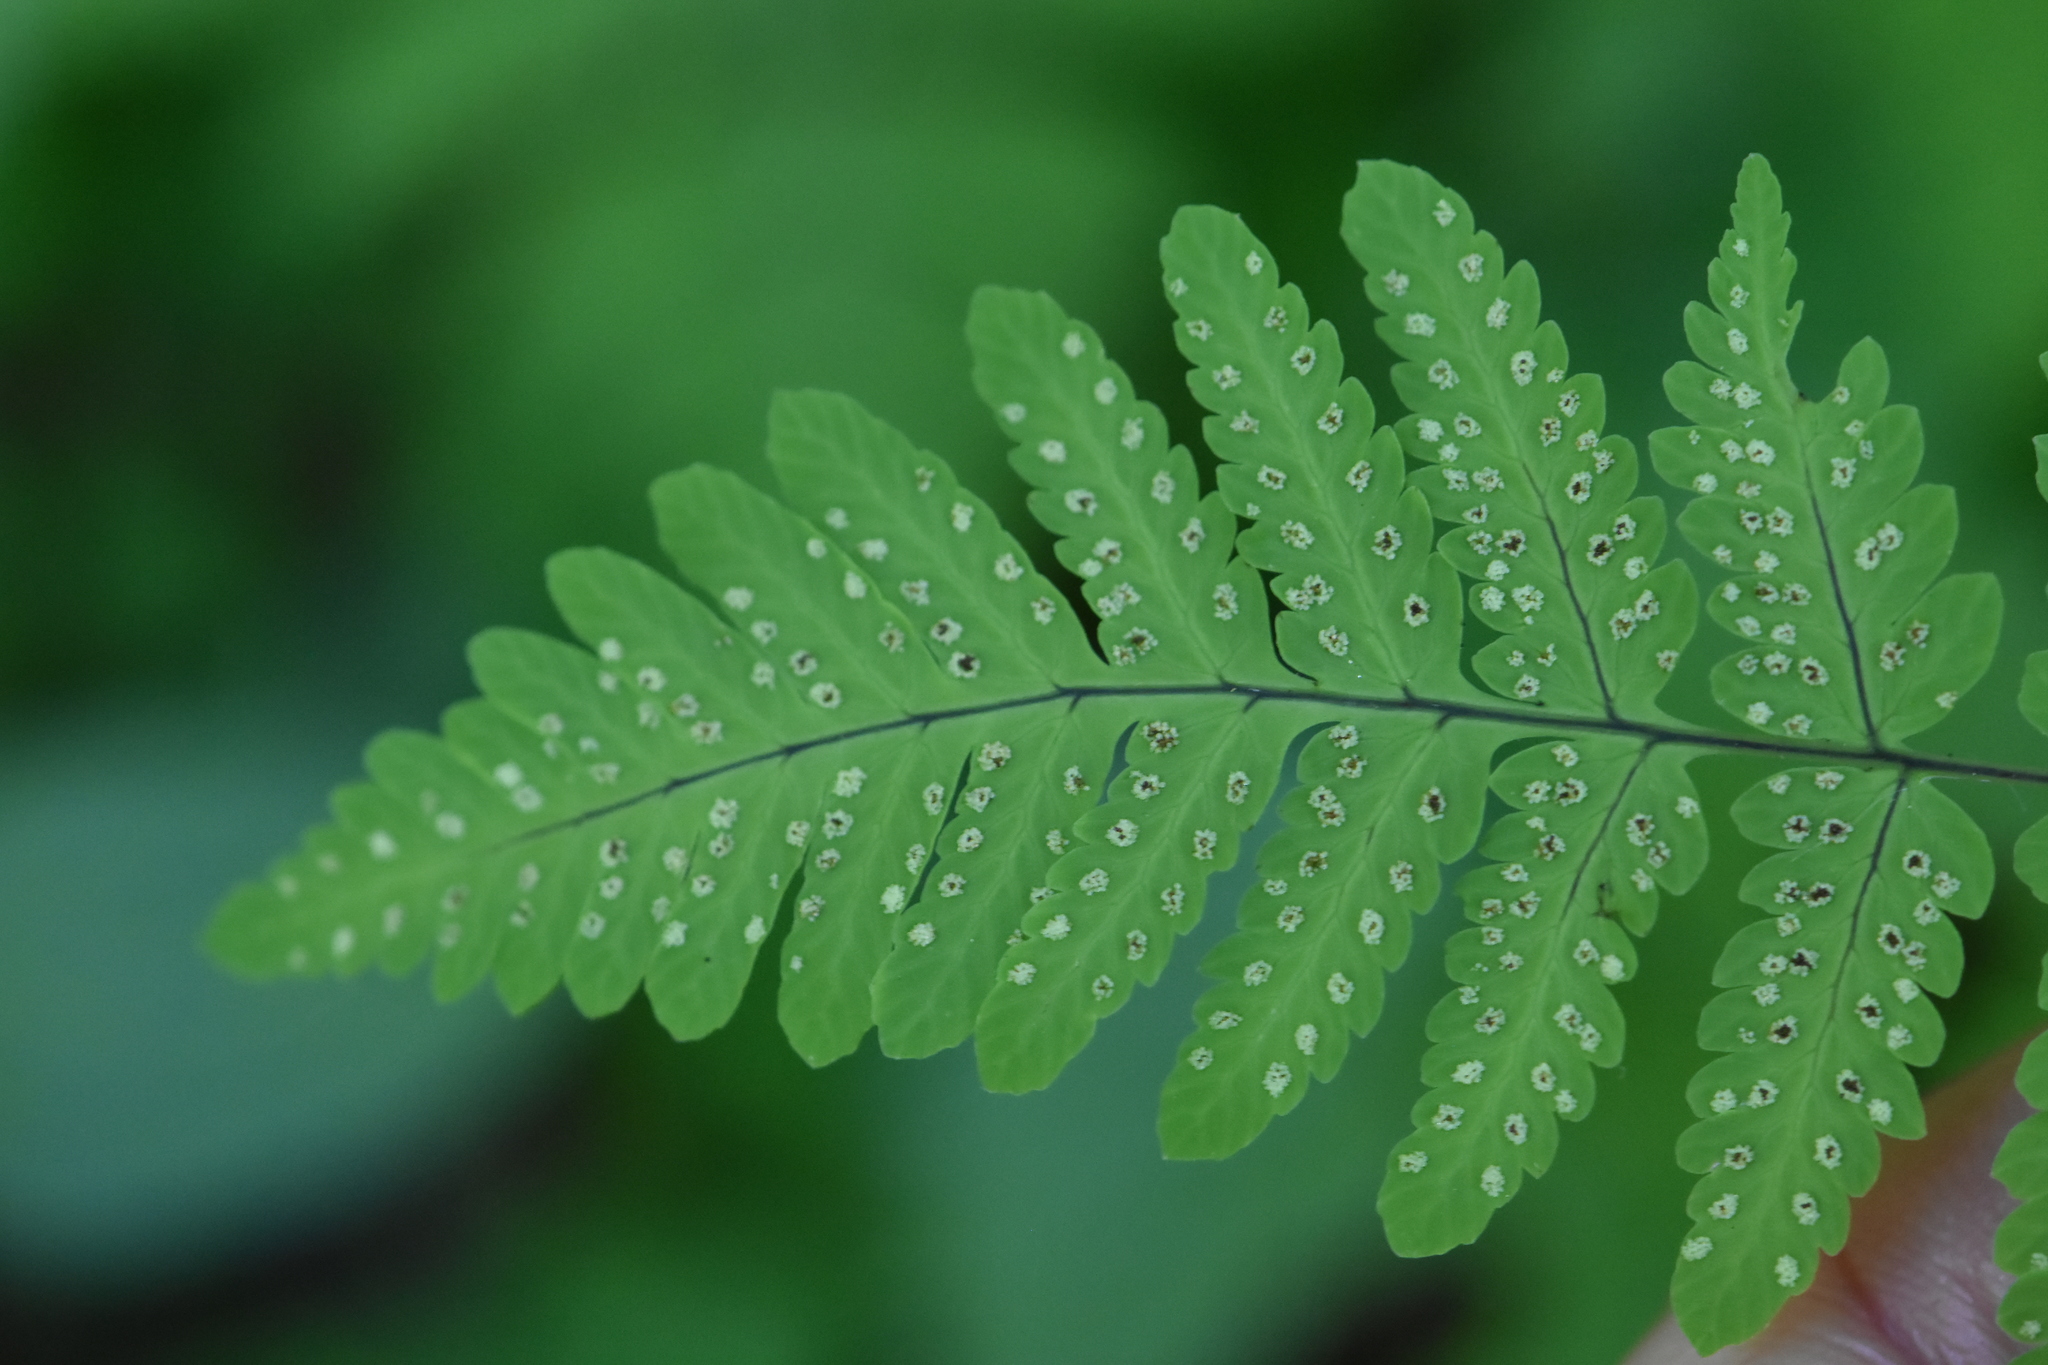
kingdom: Plantae
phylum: Tracheophyta
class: Polypodiopsida
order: Polypodiales
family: Cystopteridaceae
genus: Gymnocarpium
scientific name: Gymnocarpium dryopteris
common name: Oak fern
